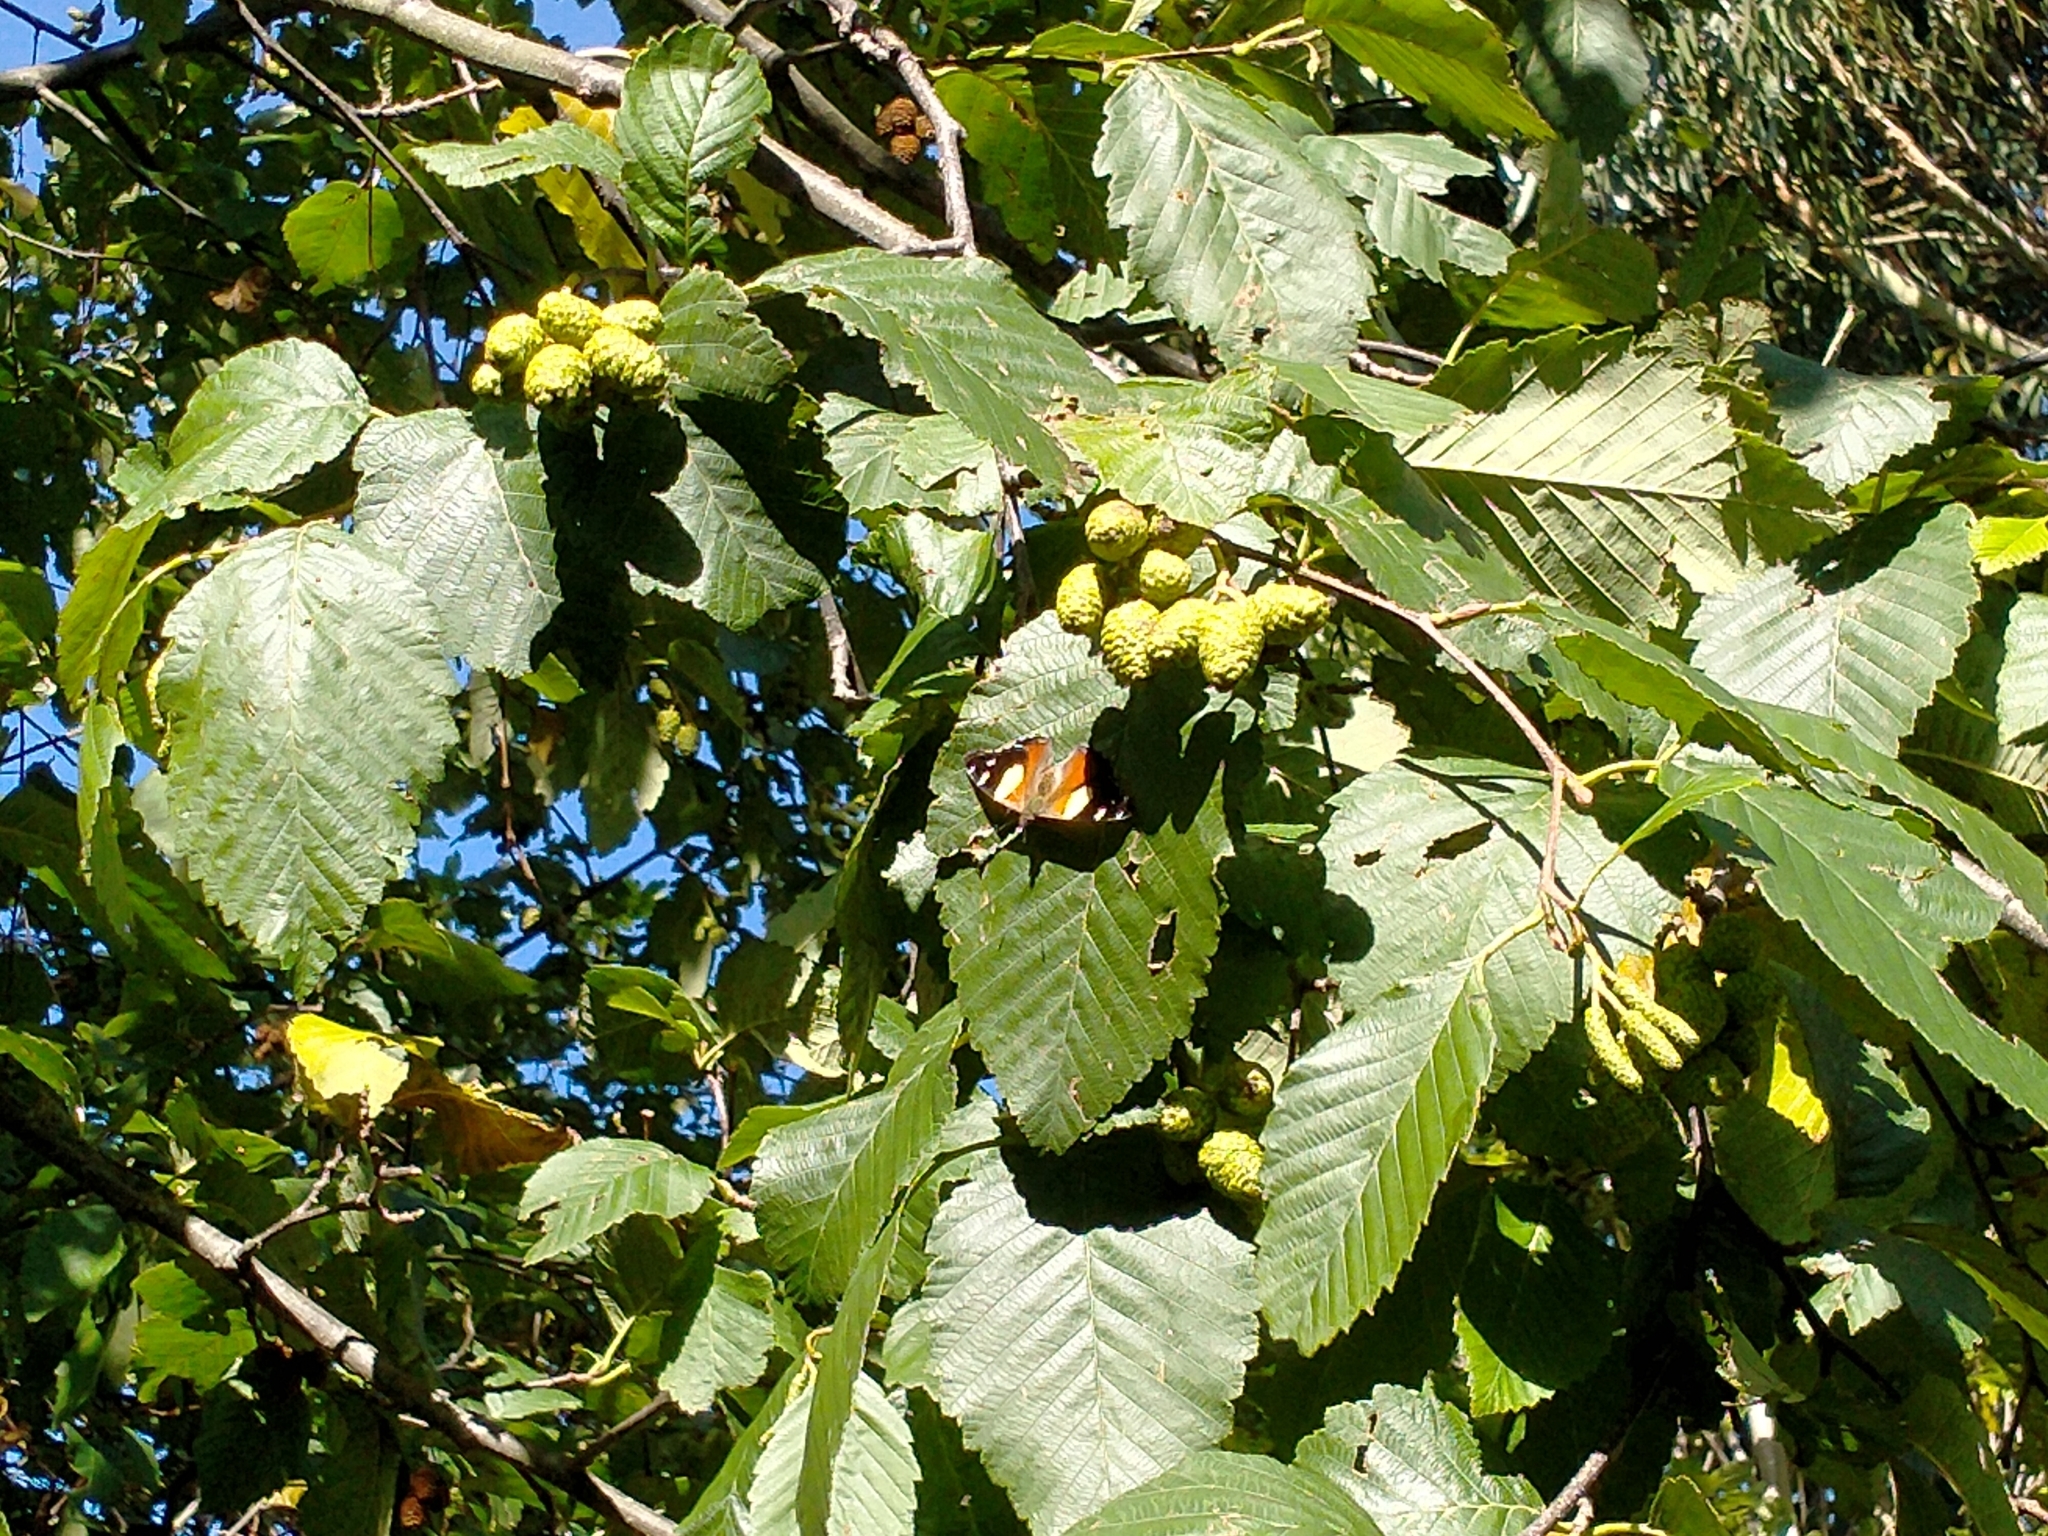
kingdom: Animalia
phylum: Arthropoda
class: Insecta
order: Lepidoptera
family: Nymphalidae
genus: Vanessa
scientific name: Vanessa itea
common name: Yellow admiral
